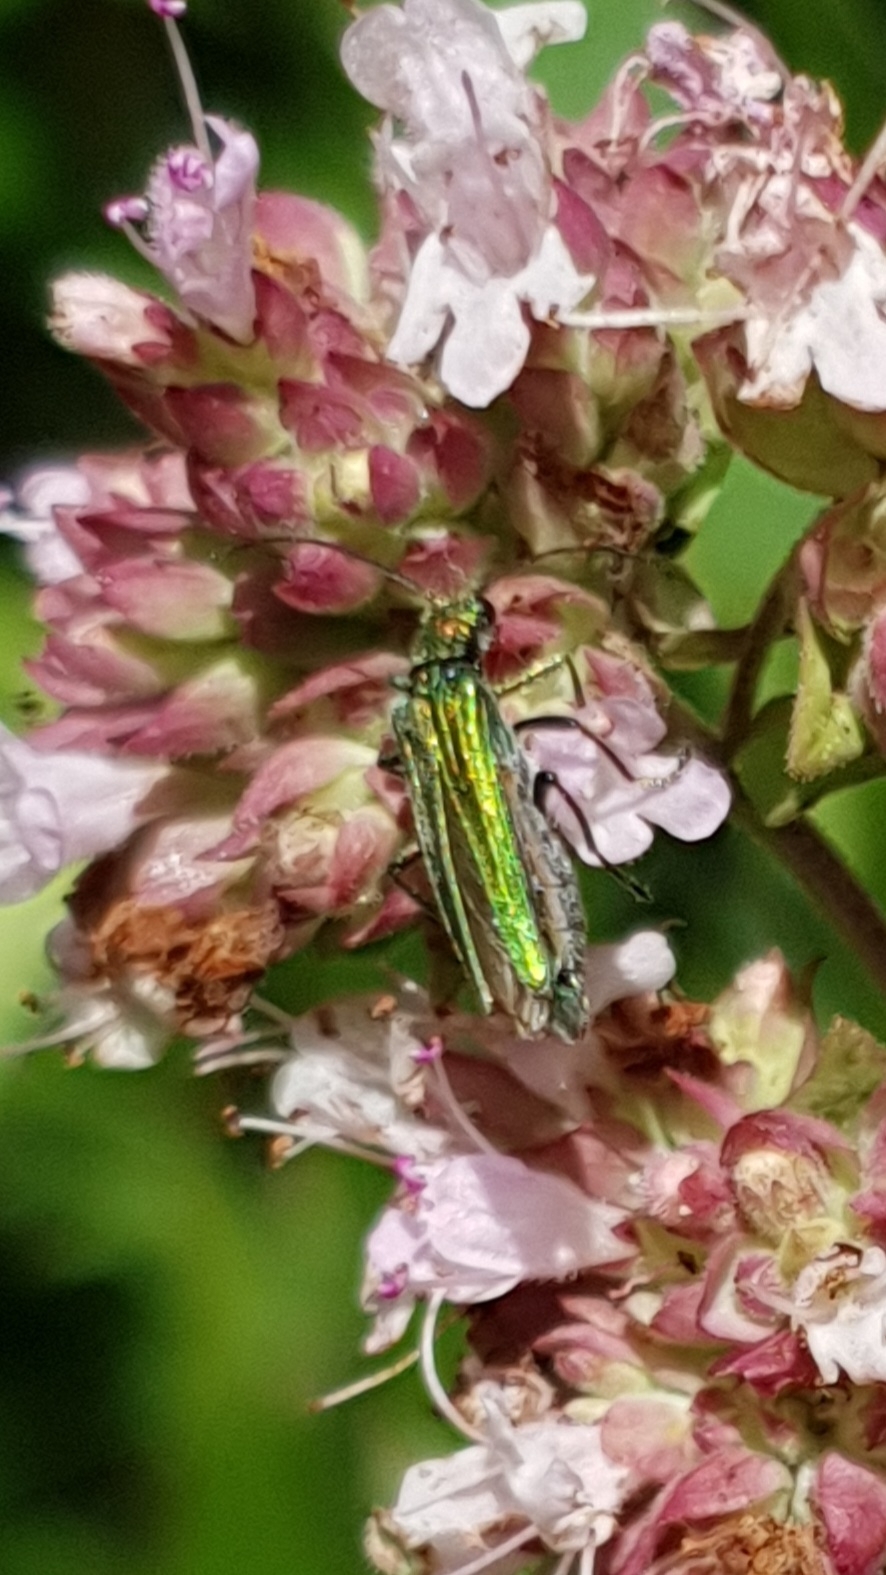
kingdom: Animalia
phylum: Arthropoda
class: Insecta
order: Coleoptera
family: Oedemeridae
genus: Oedemera
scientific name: Oedemera nobilis
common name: Swollen-thighed beetle
